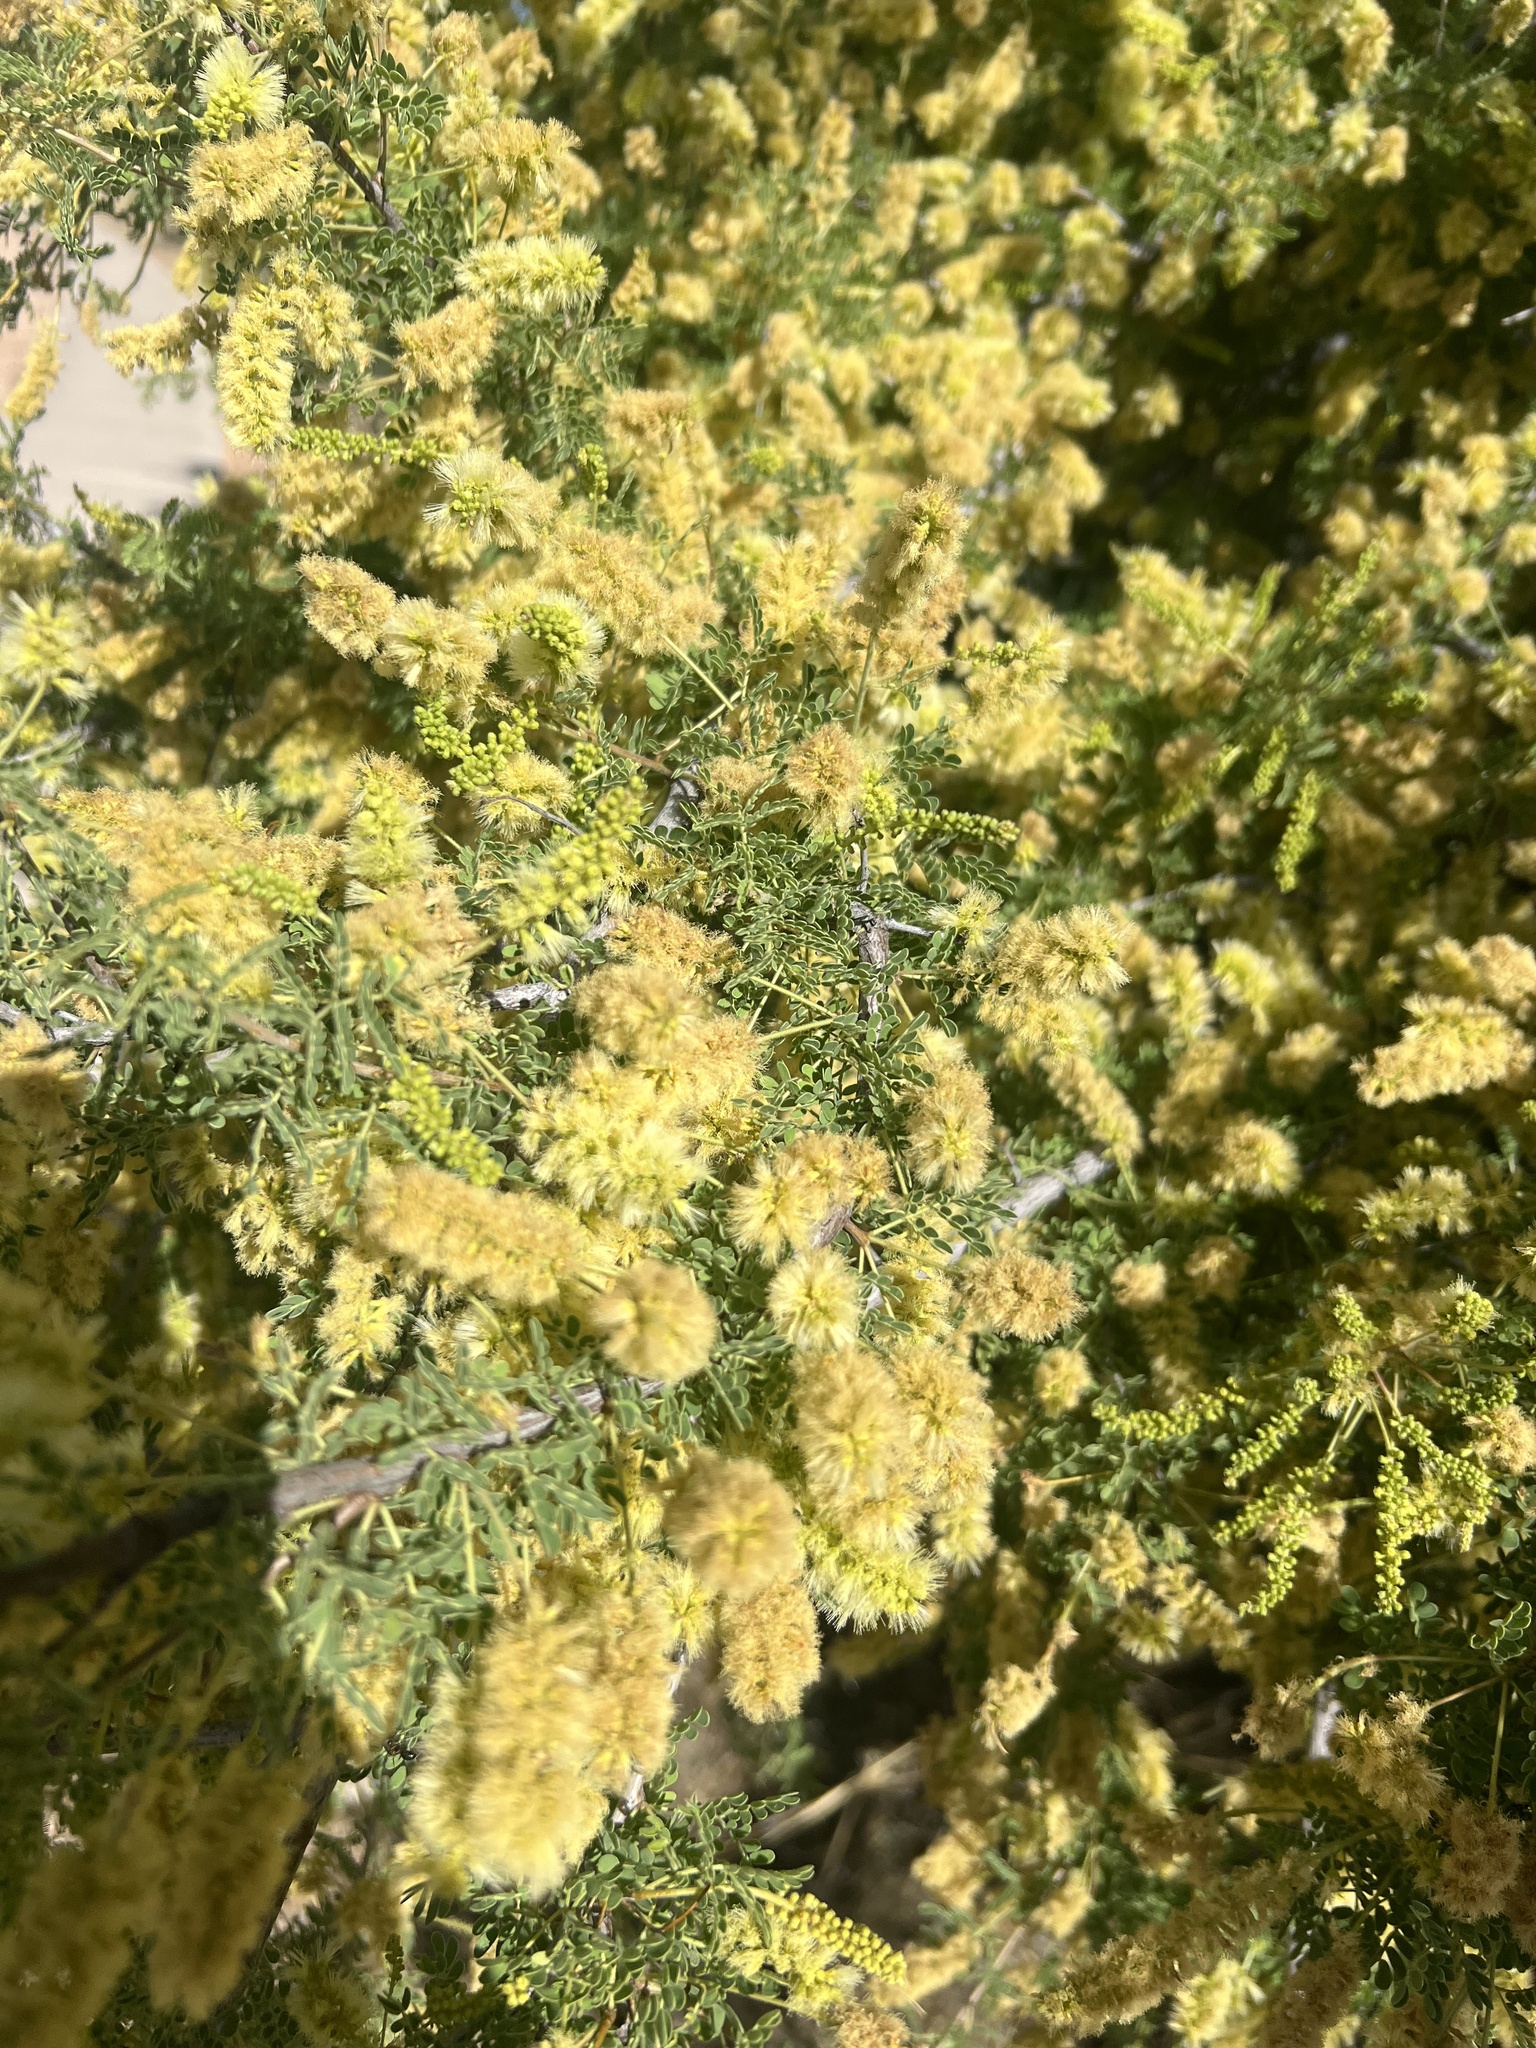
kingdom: Plantae
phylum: Tracheophyta
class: Magnoliopsida
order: Fabales
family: Fabaceae
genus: Senegalia
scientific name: Senegalia greggii
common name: Texas-mimosa
